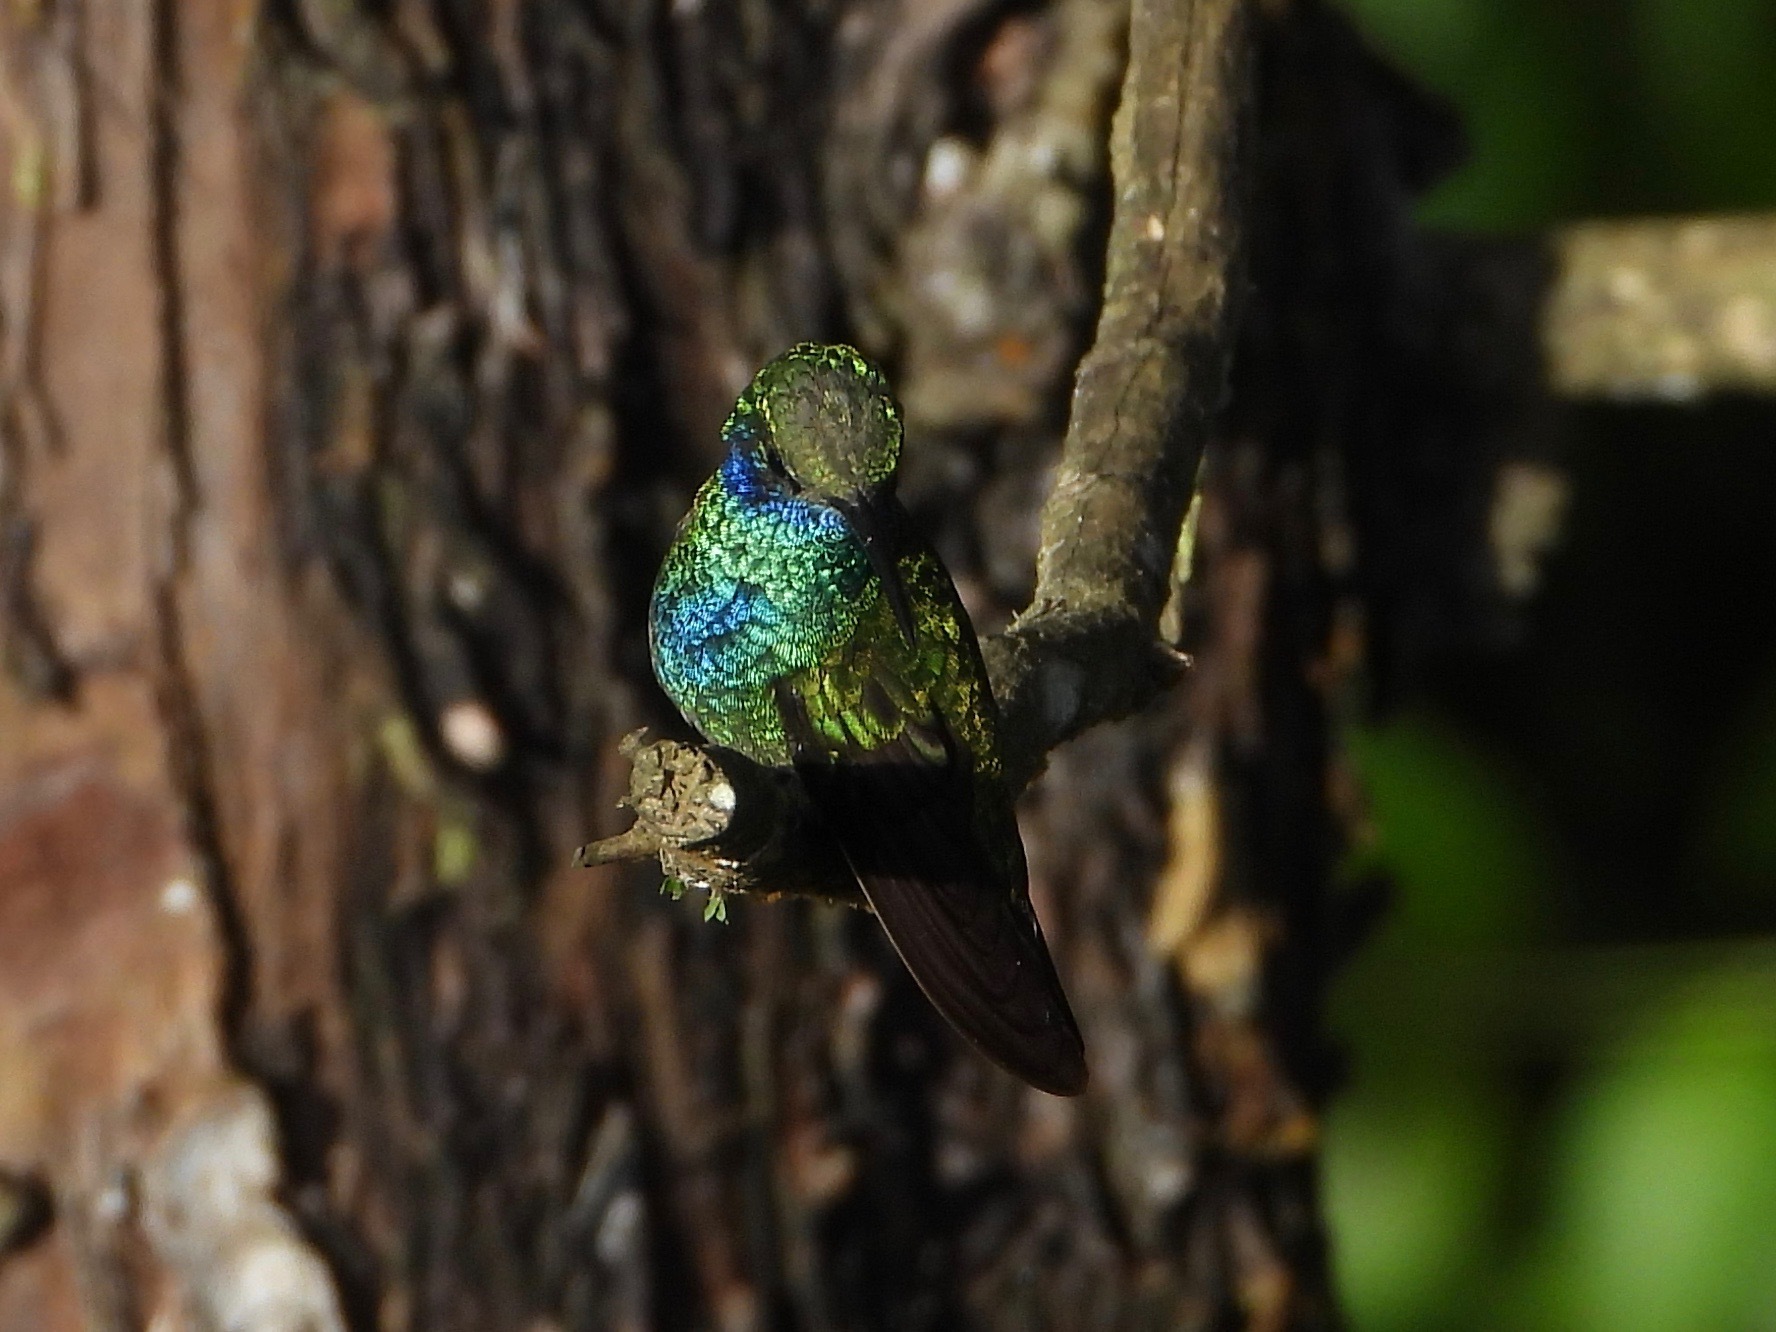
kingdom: Animalia
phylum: Chordata
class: Aves
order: Apodiformes
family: Trochilidae
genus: Colibri
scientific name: Colibri thalassinus
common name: Green violetear
